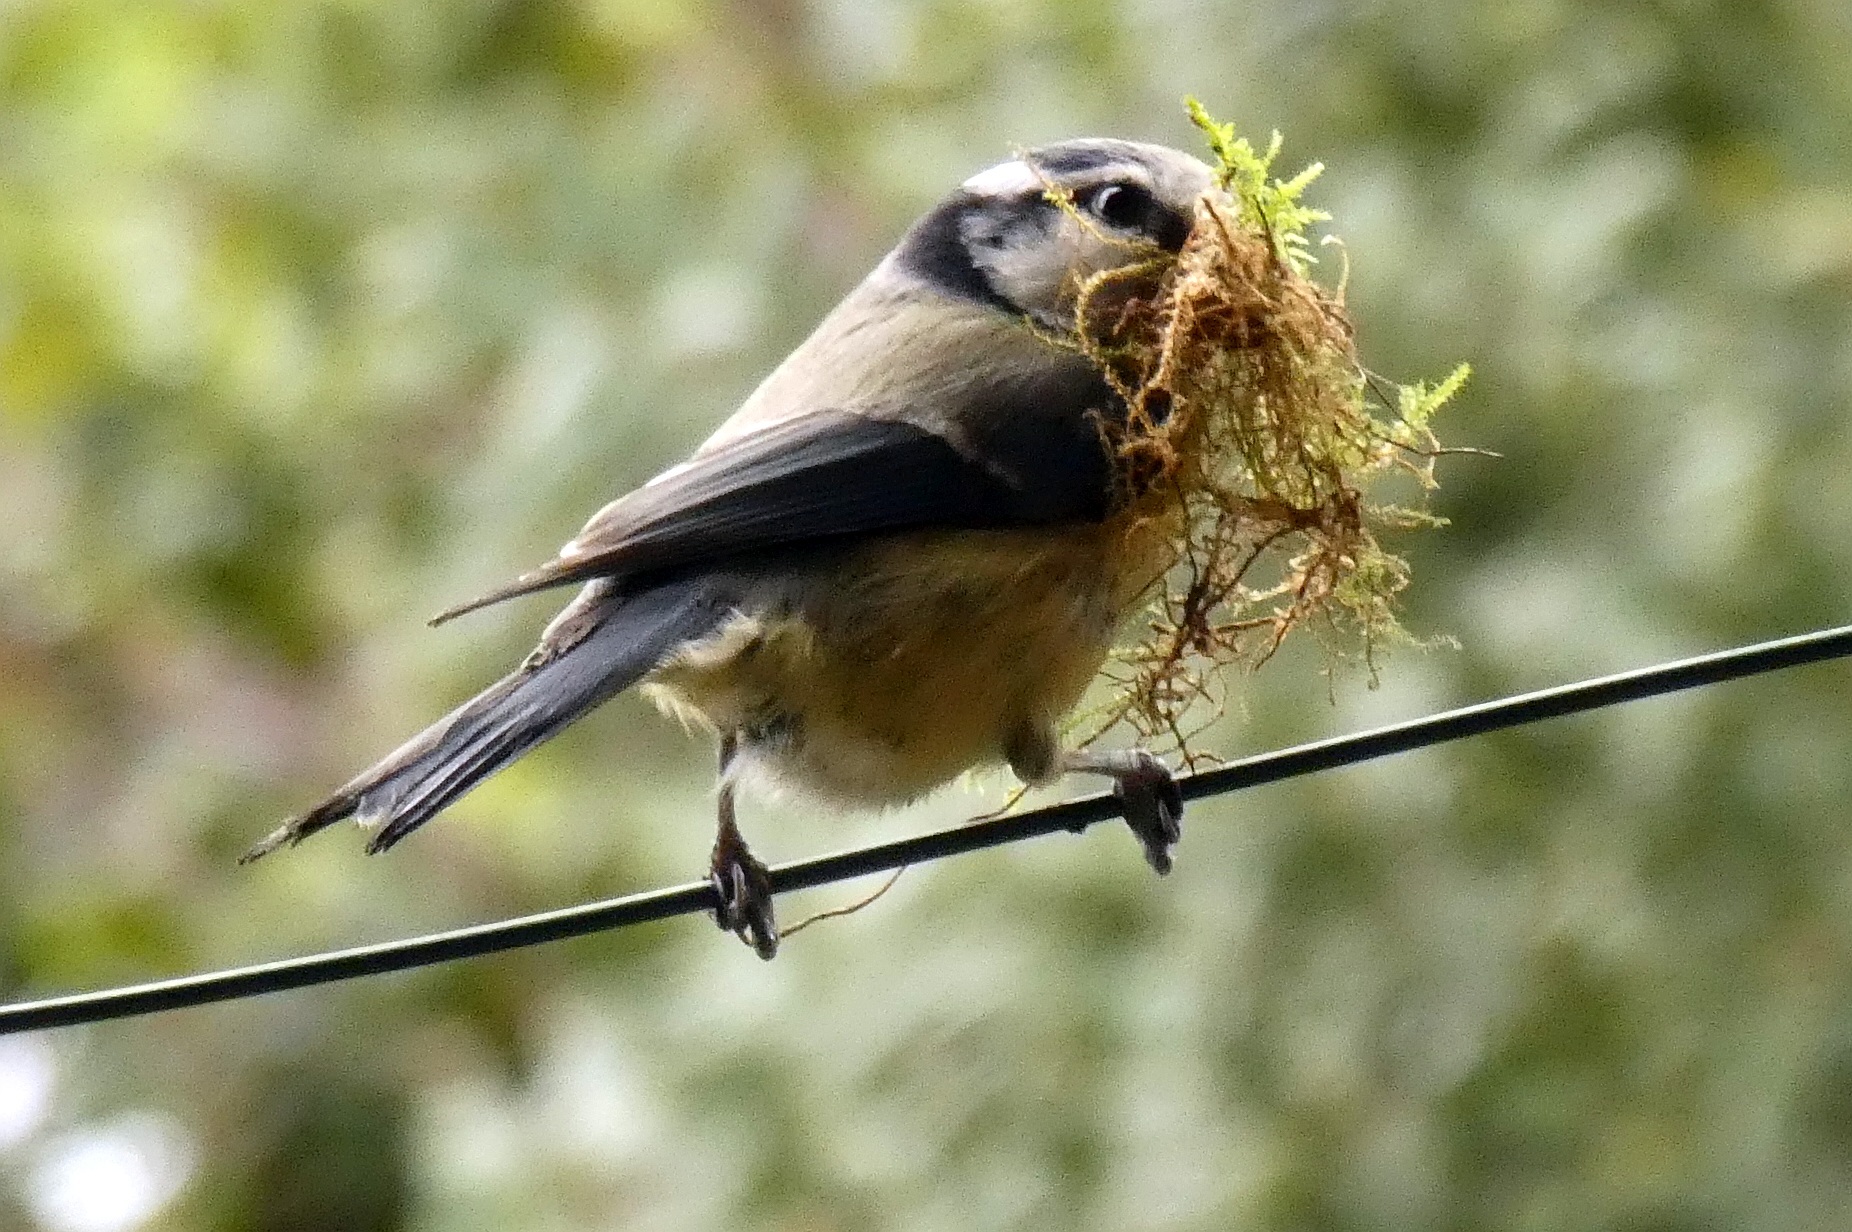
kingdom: Animalia
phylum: Chordata
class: Aves
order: Passeriformes
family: Paridae
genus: Cyanistes
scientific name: Cyanistes caeruleus
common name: Eurasian blue tit
